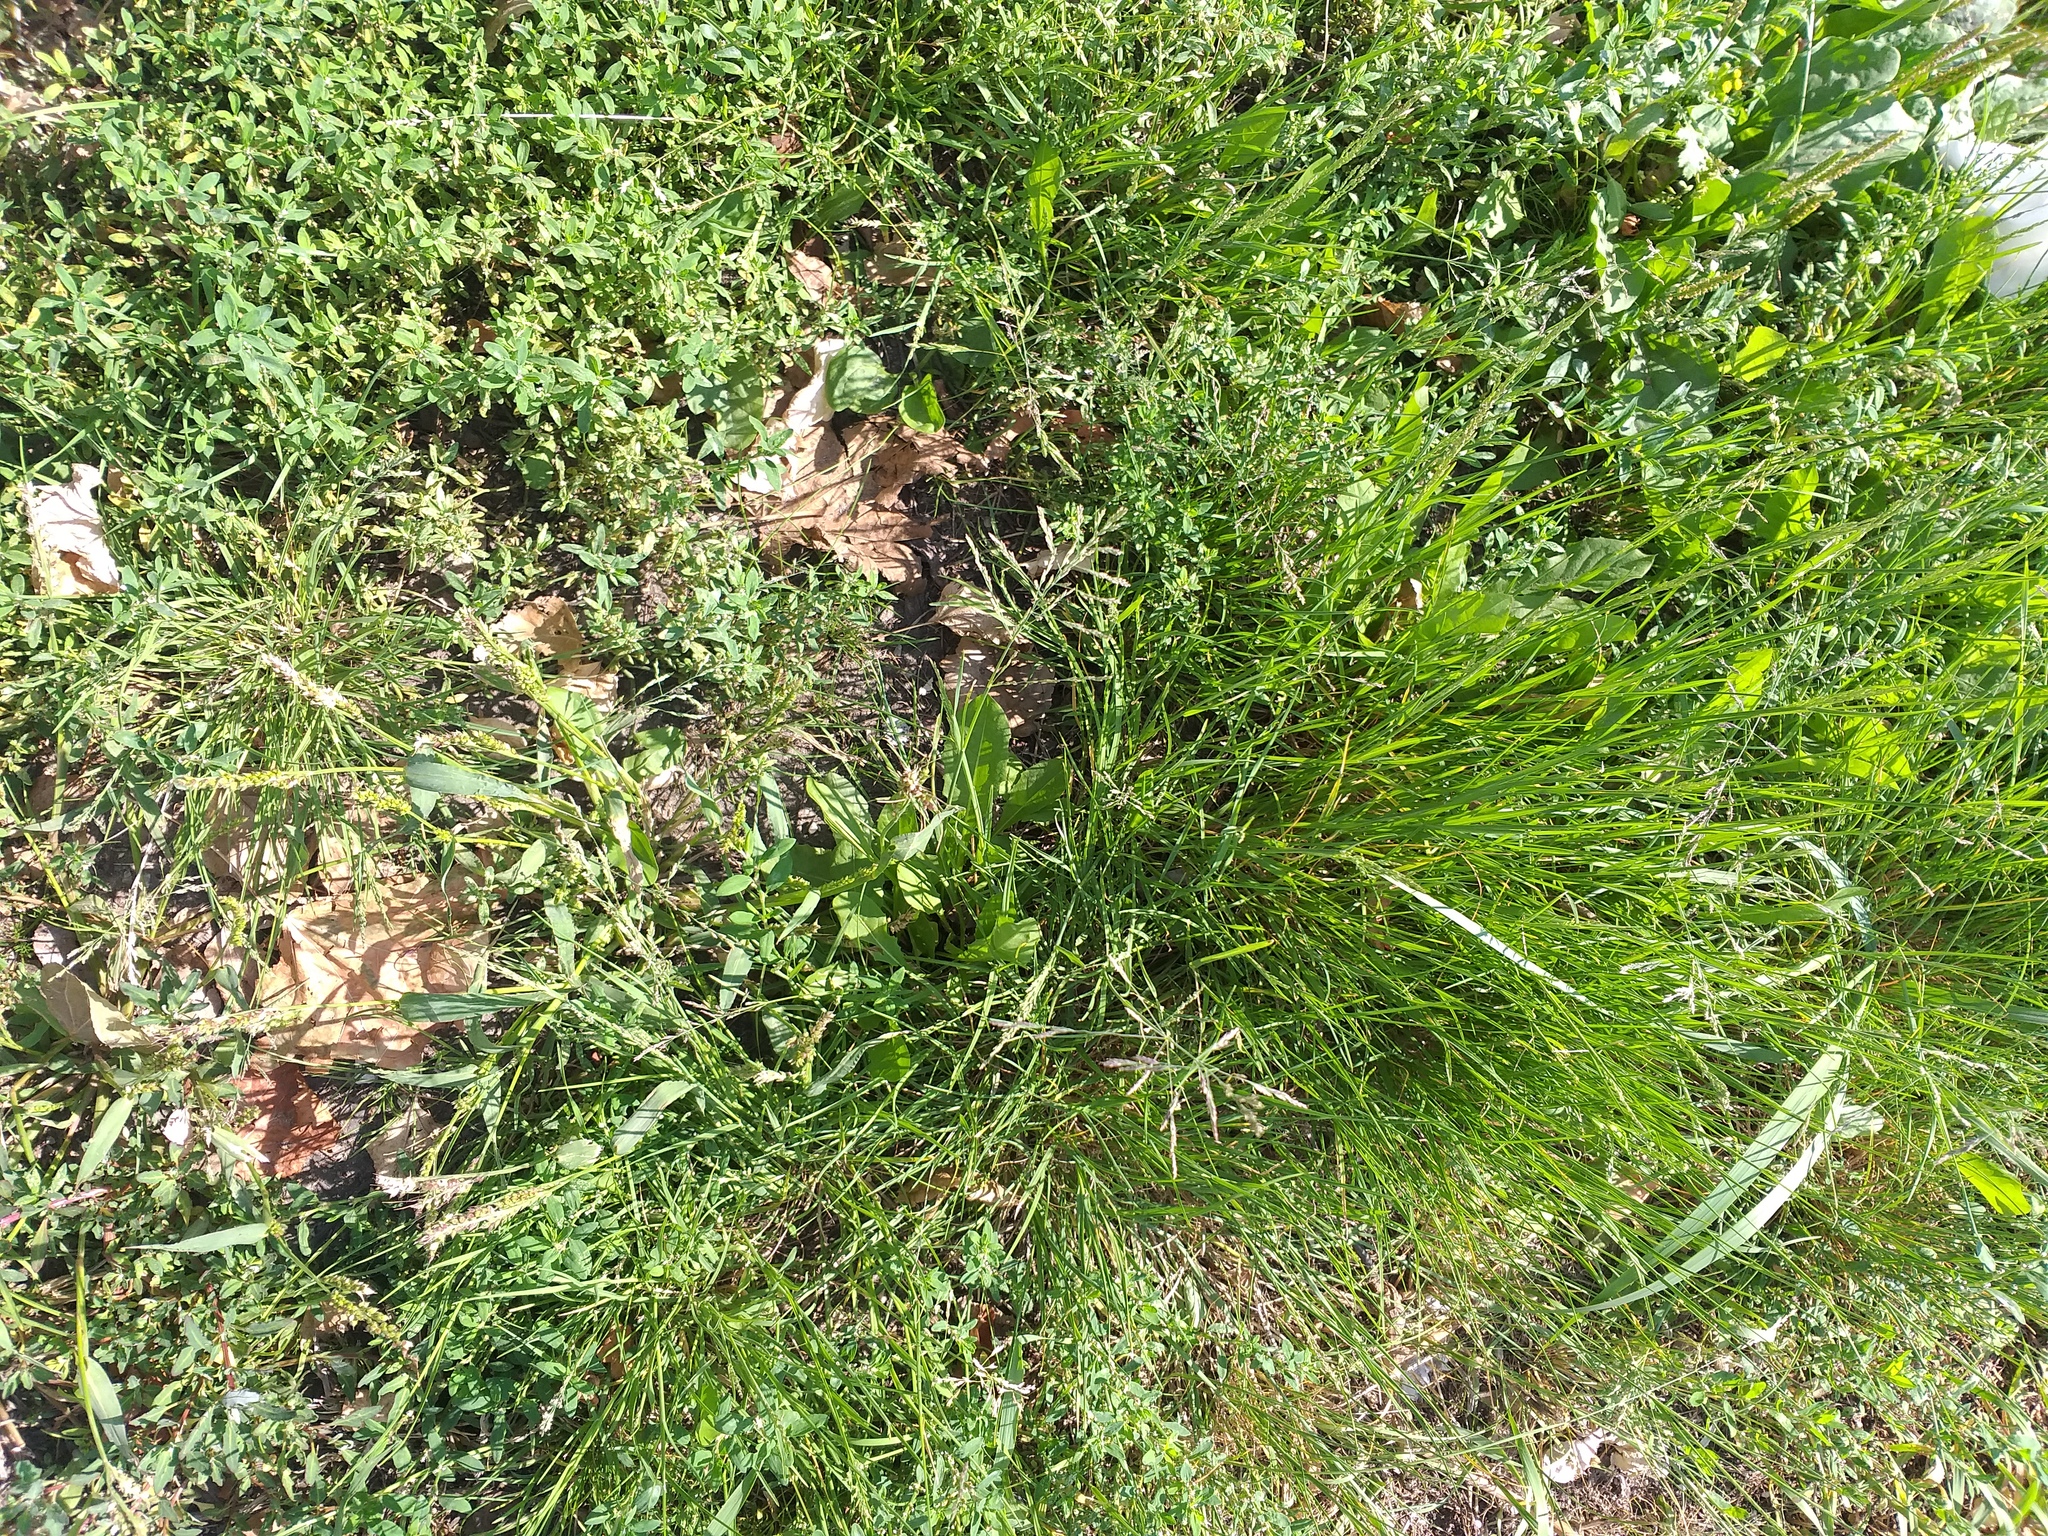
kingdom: Plantae
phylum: Tracheophyta
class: Liliopsida
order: Poales
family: Poaceae
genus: Puccinellia
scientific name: Puccinellia distans
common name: Weeping alkaligrass
